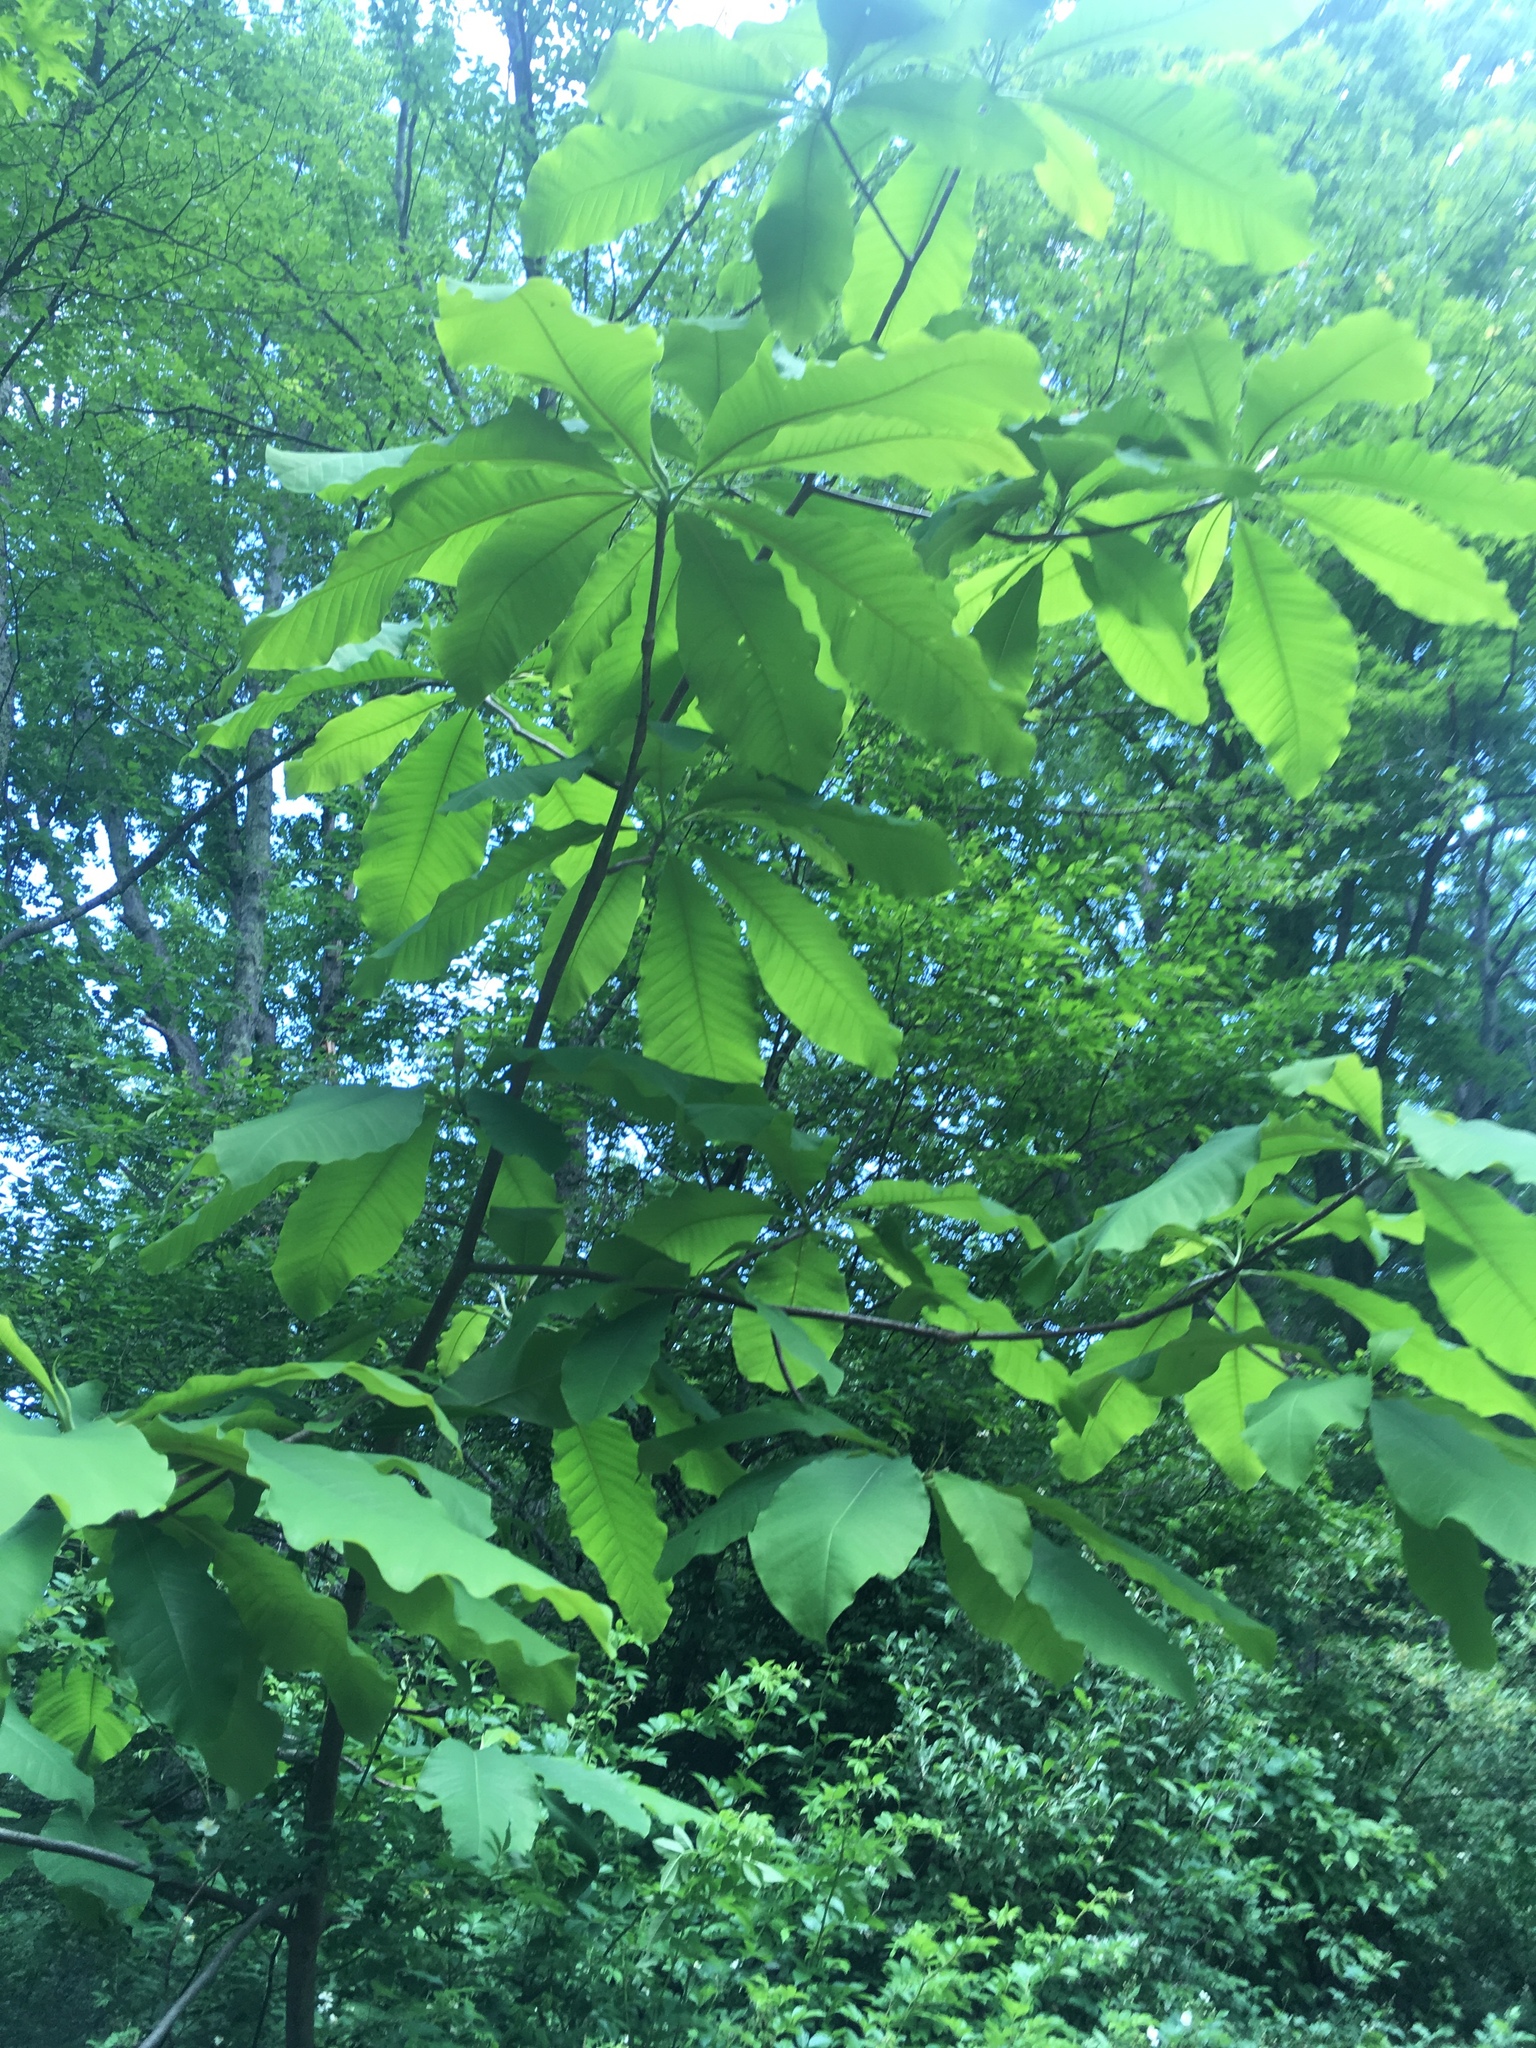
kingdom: Plantae
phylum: Tracheophyta
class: Magnoliopsida
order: Magnoliales
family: Magnoliaceae
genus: Magnolia
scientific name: Magnolia tripetala
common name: Umbrella magnolia
